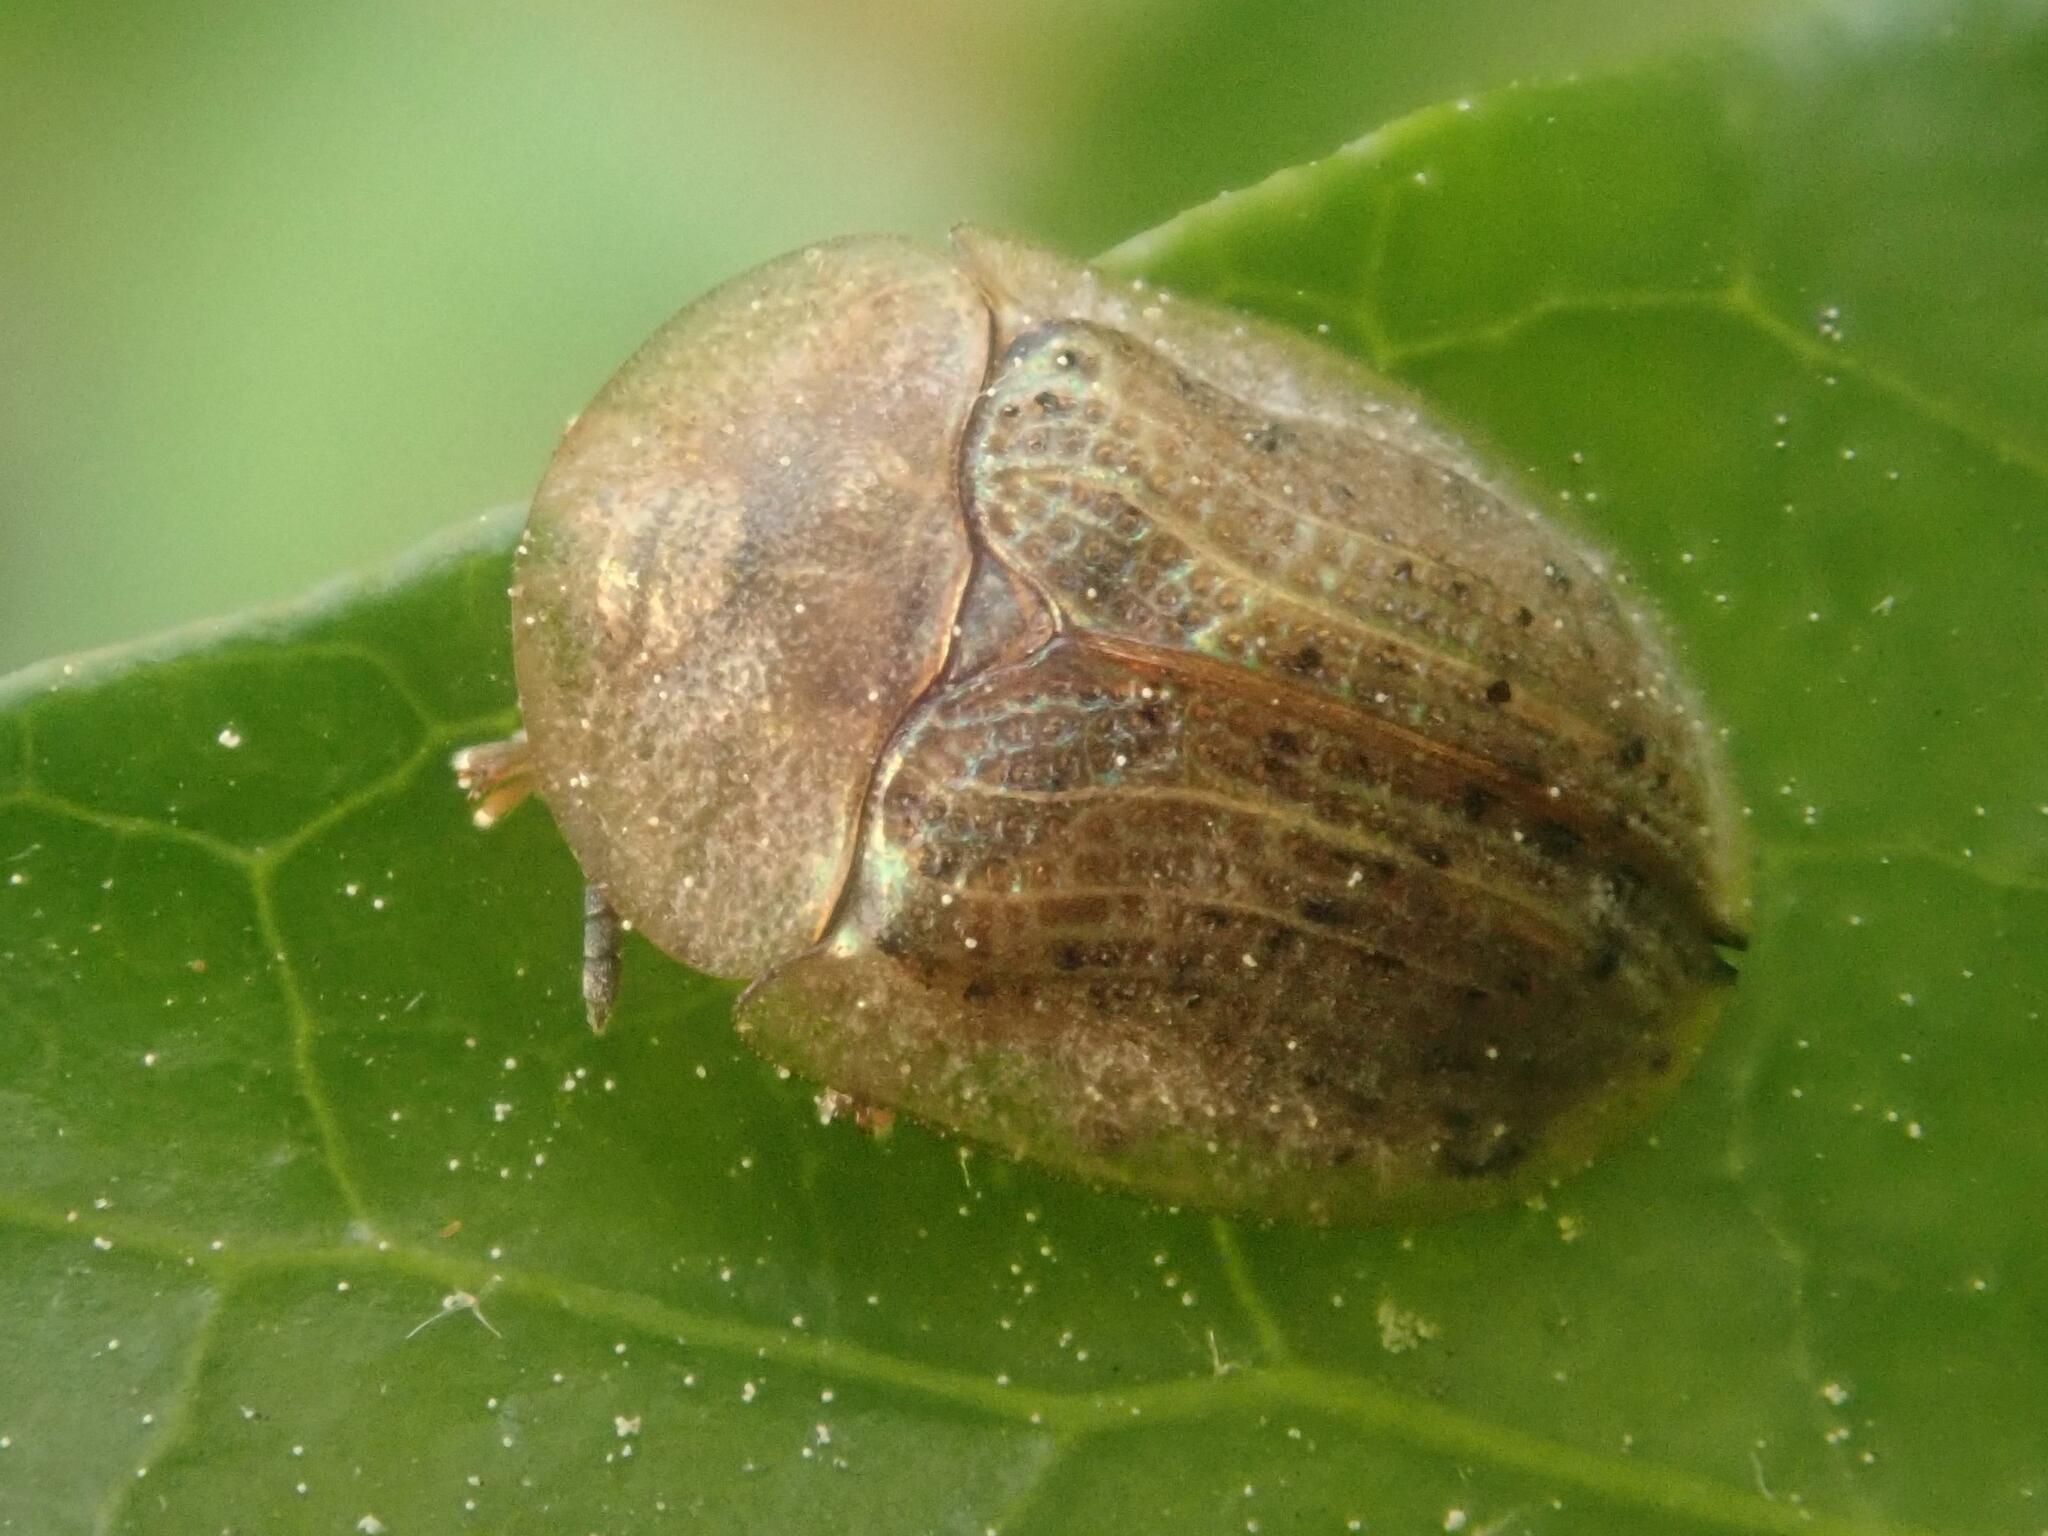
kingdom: Animalia
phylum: Arthropoda
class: Insecta
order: Coleoptera
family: Chrysomelidae
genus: Cassida
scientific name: Cassida nebulosa
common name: Beet tortoise beetle
